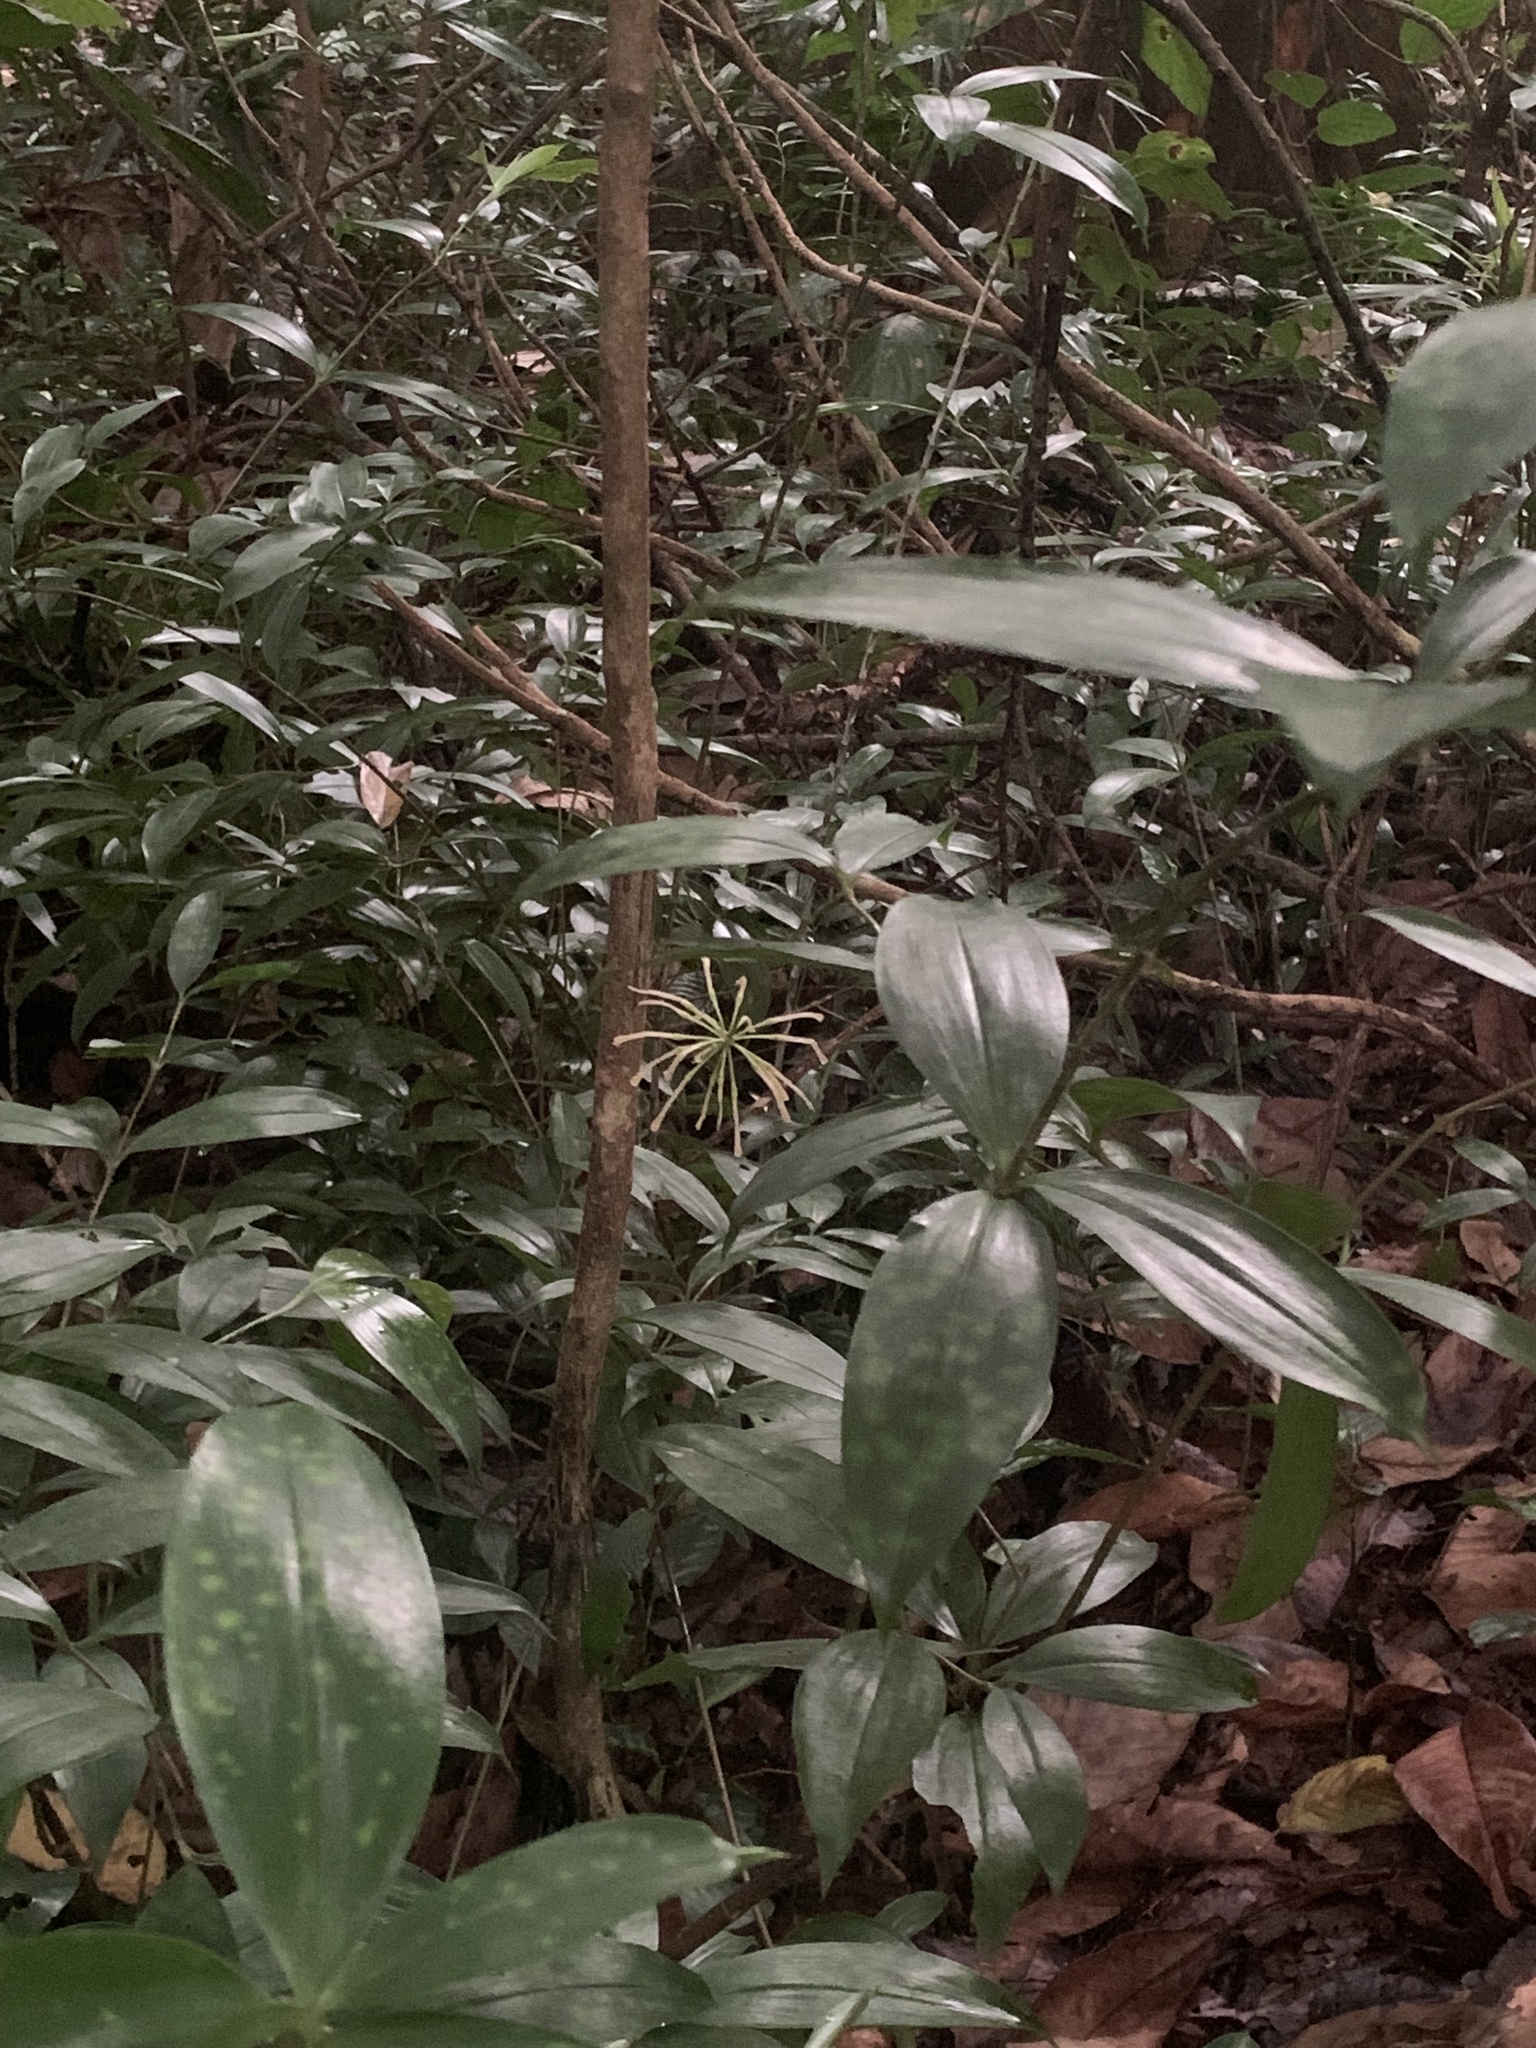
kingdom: Plantae
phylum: Tracheophyta
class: Liliopsida
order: Asparagales
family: Asparagaceae
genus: Dracaena
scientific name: Dracaena surculosa
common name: Spotted dracaena
